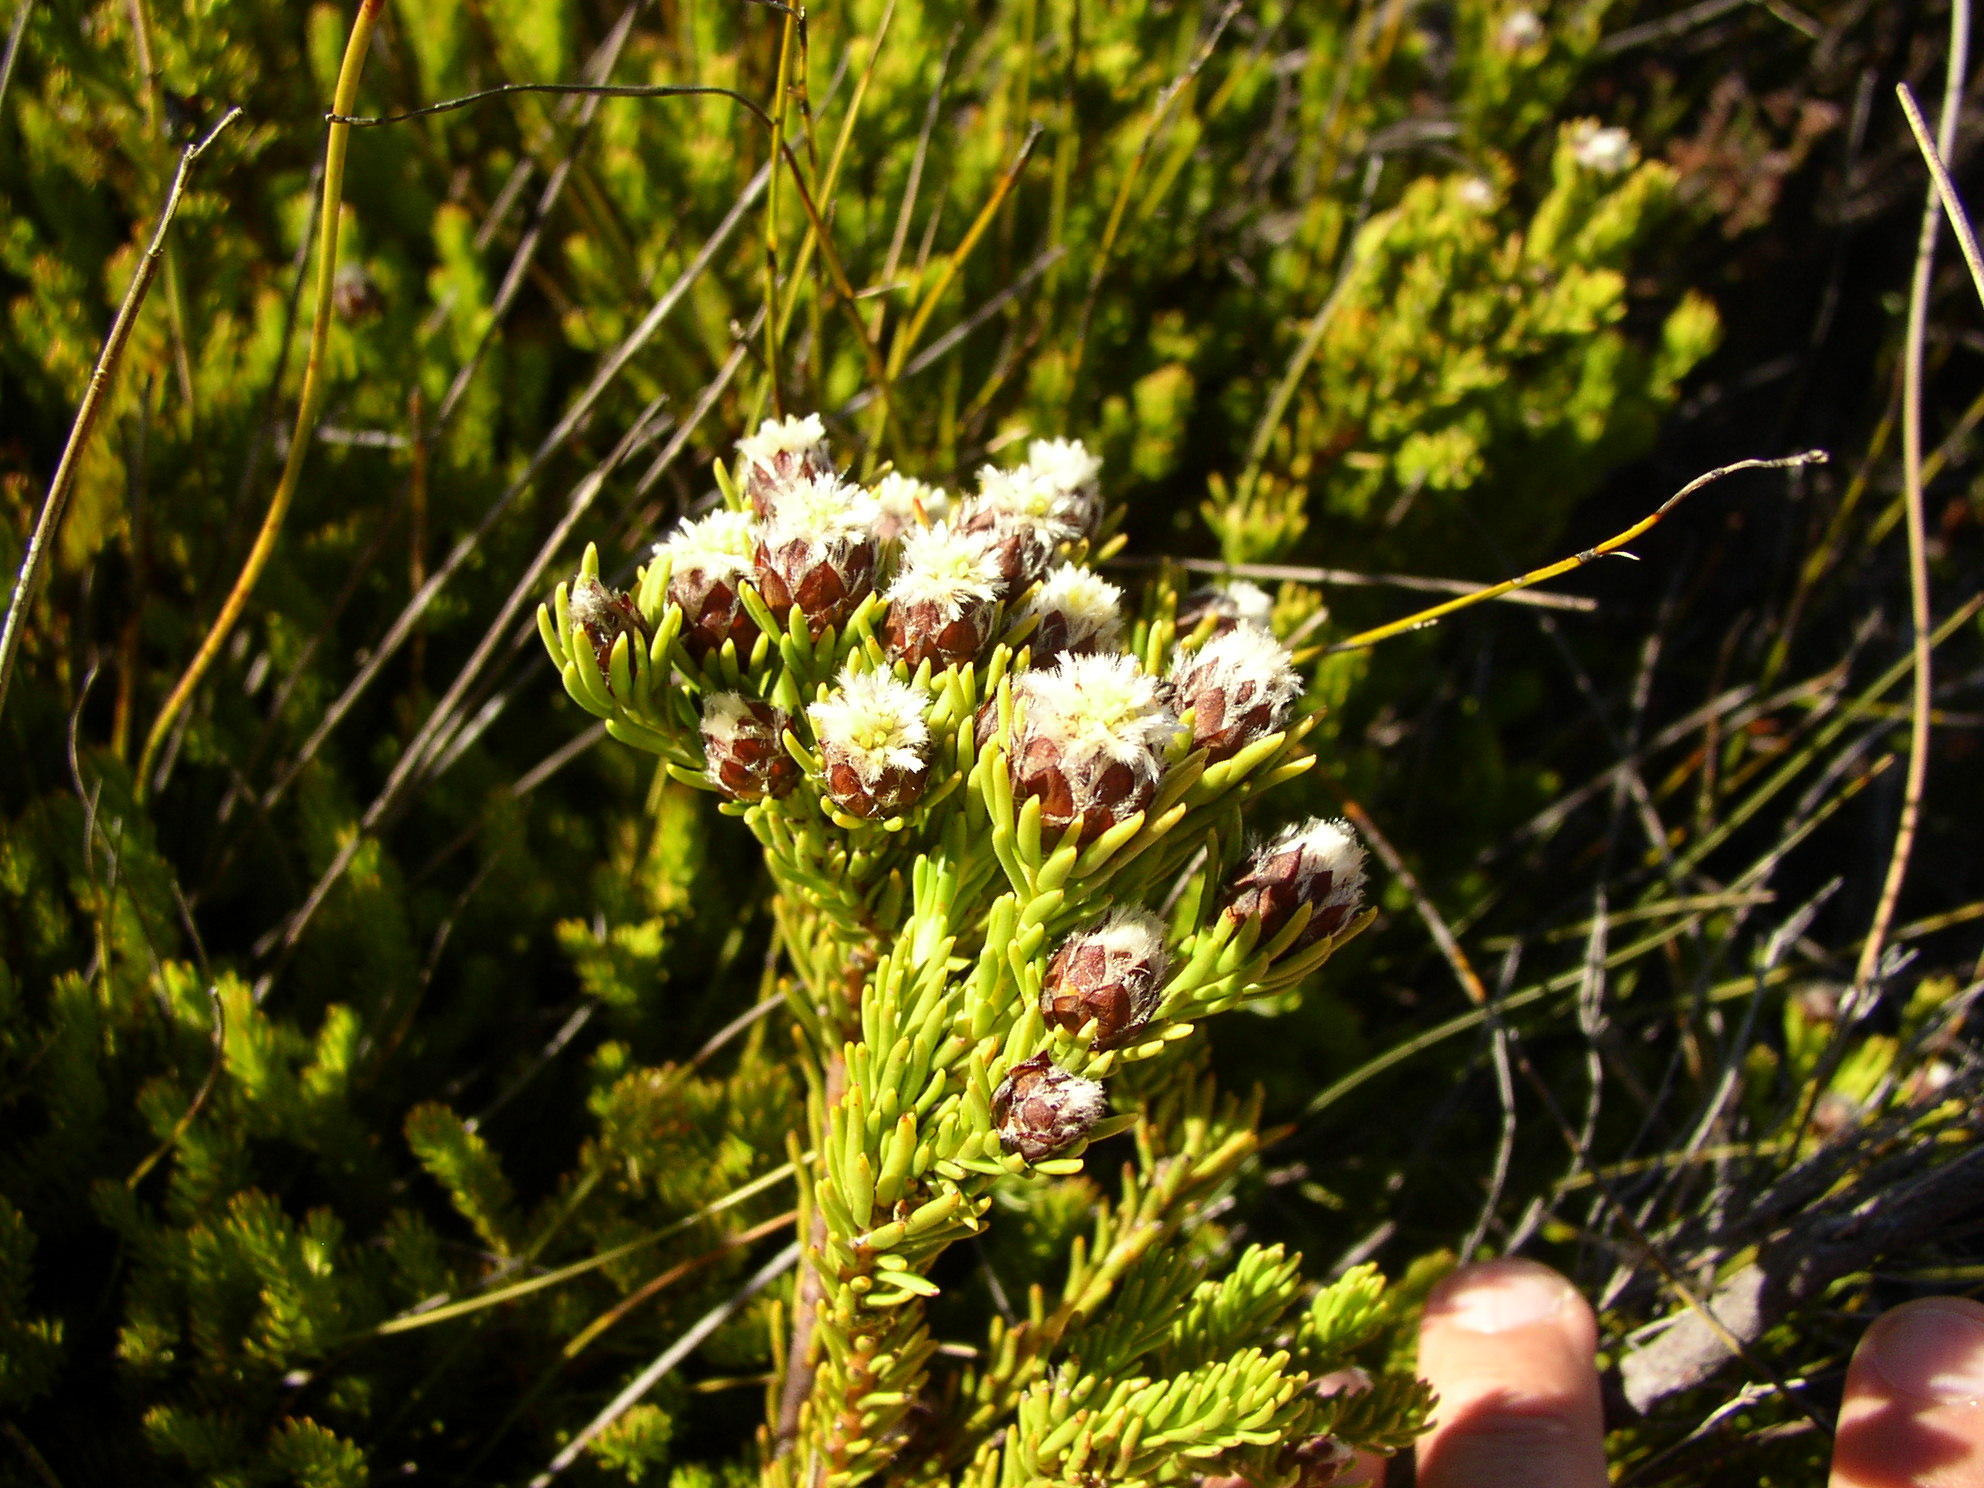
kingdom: Plantae
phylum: Tracheophyta
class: Magnoliopsida
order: Proteales
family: Proteaceae
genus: Leucadendron
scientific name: Leucadendron sorocephalodes
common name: Woolly conebush
